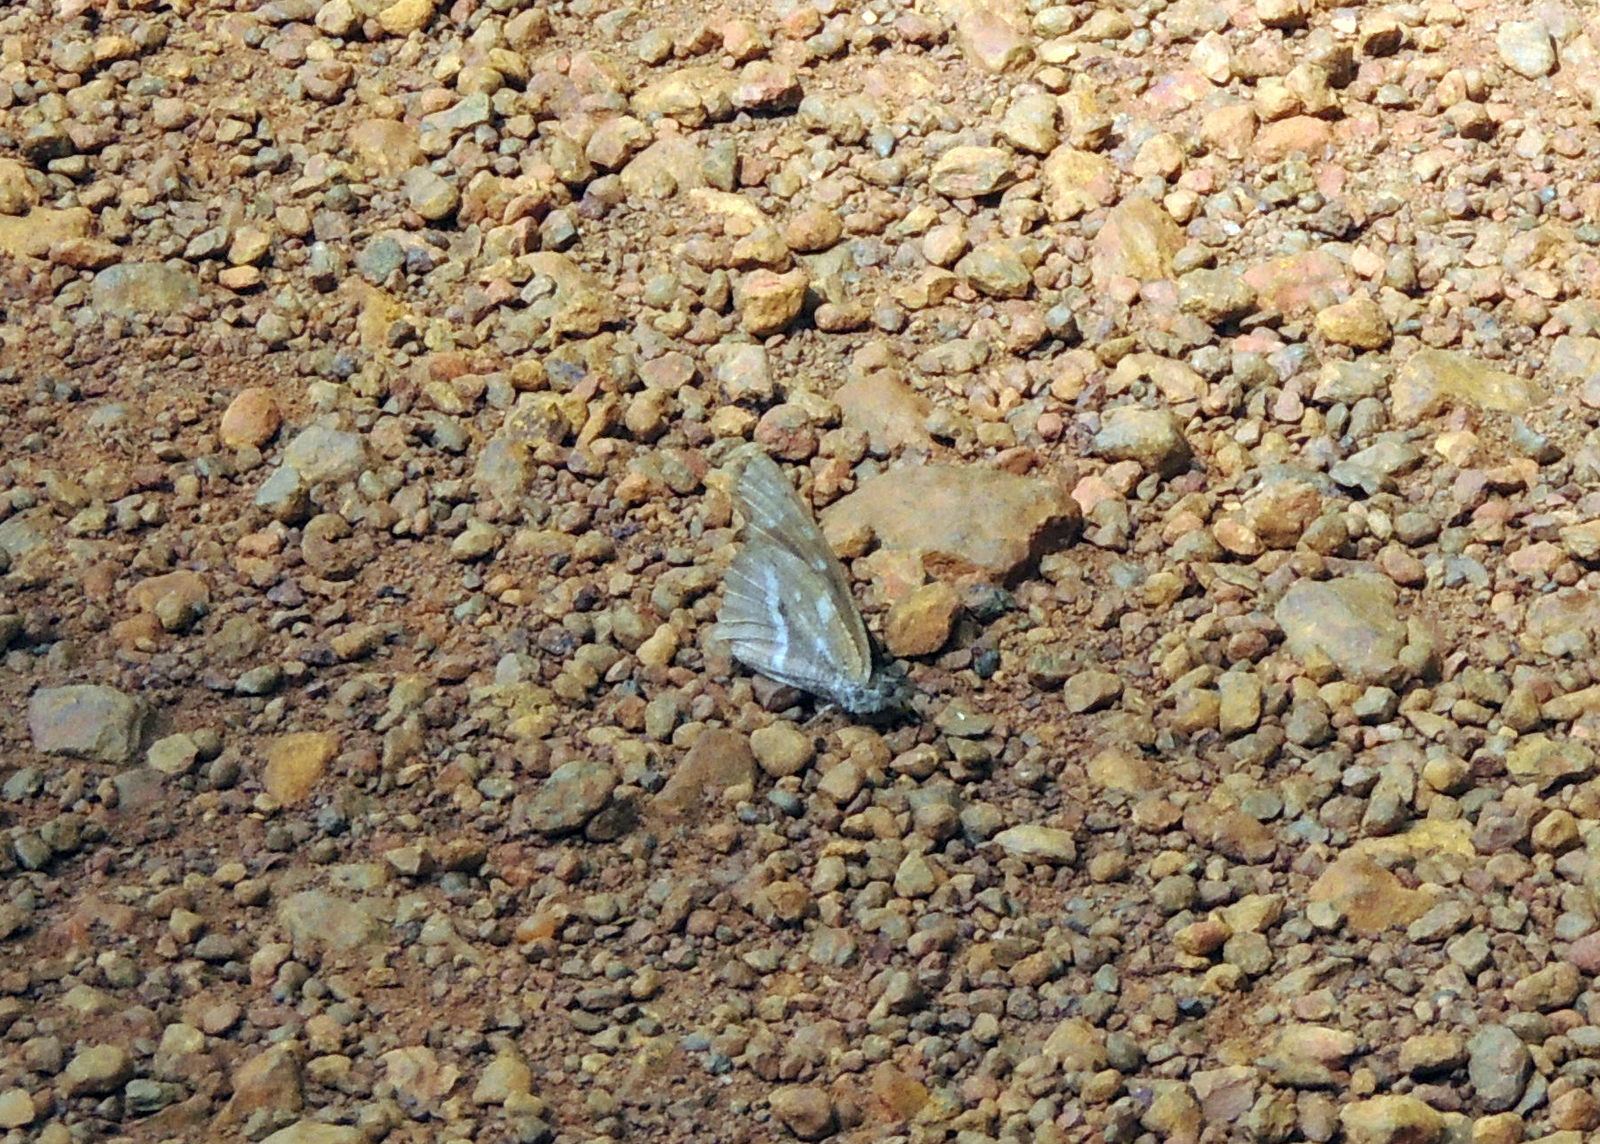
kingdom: Animalia
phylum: Arthropoda
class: Insecta
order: Lepidoptera
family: Nymphalidae
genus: Libythea
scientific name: Libythea labdaca
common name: Northern african snout
